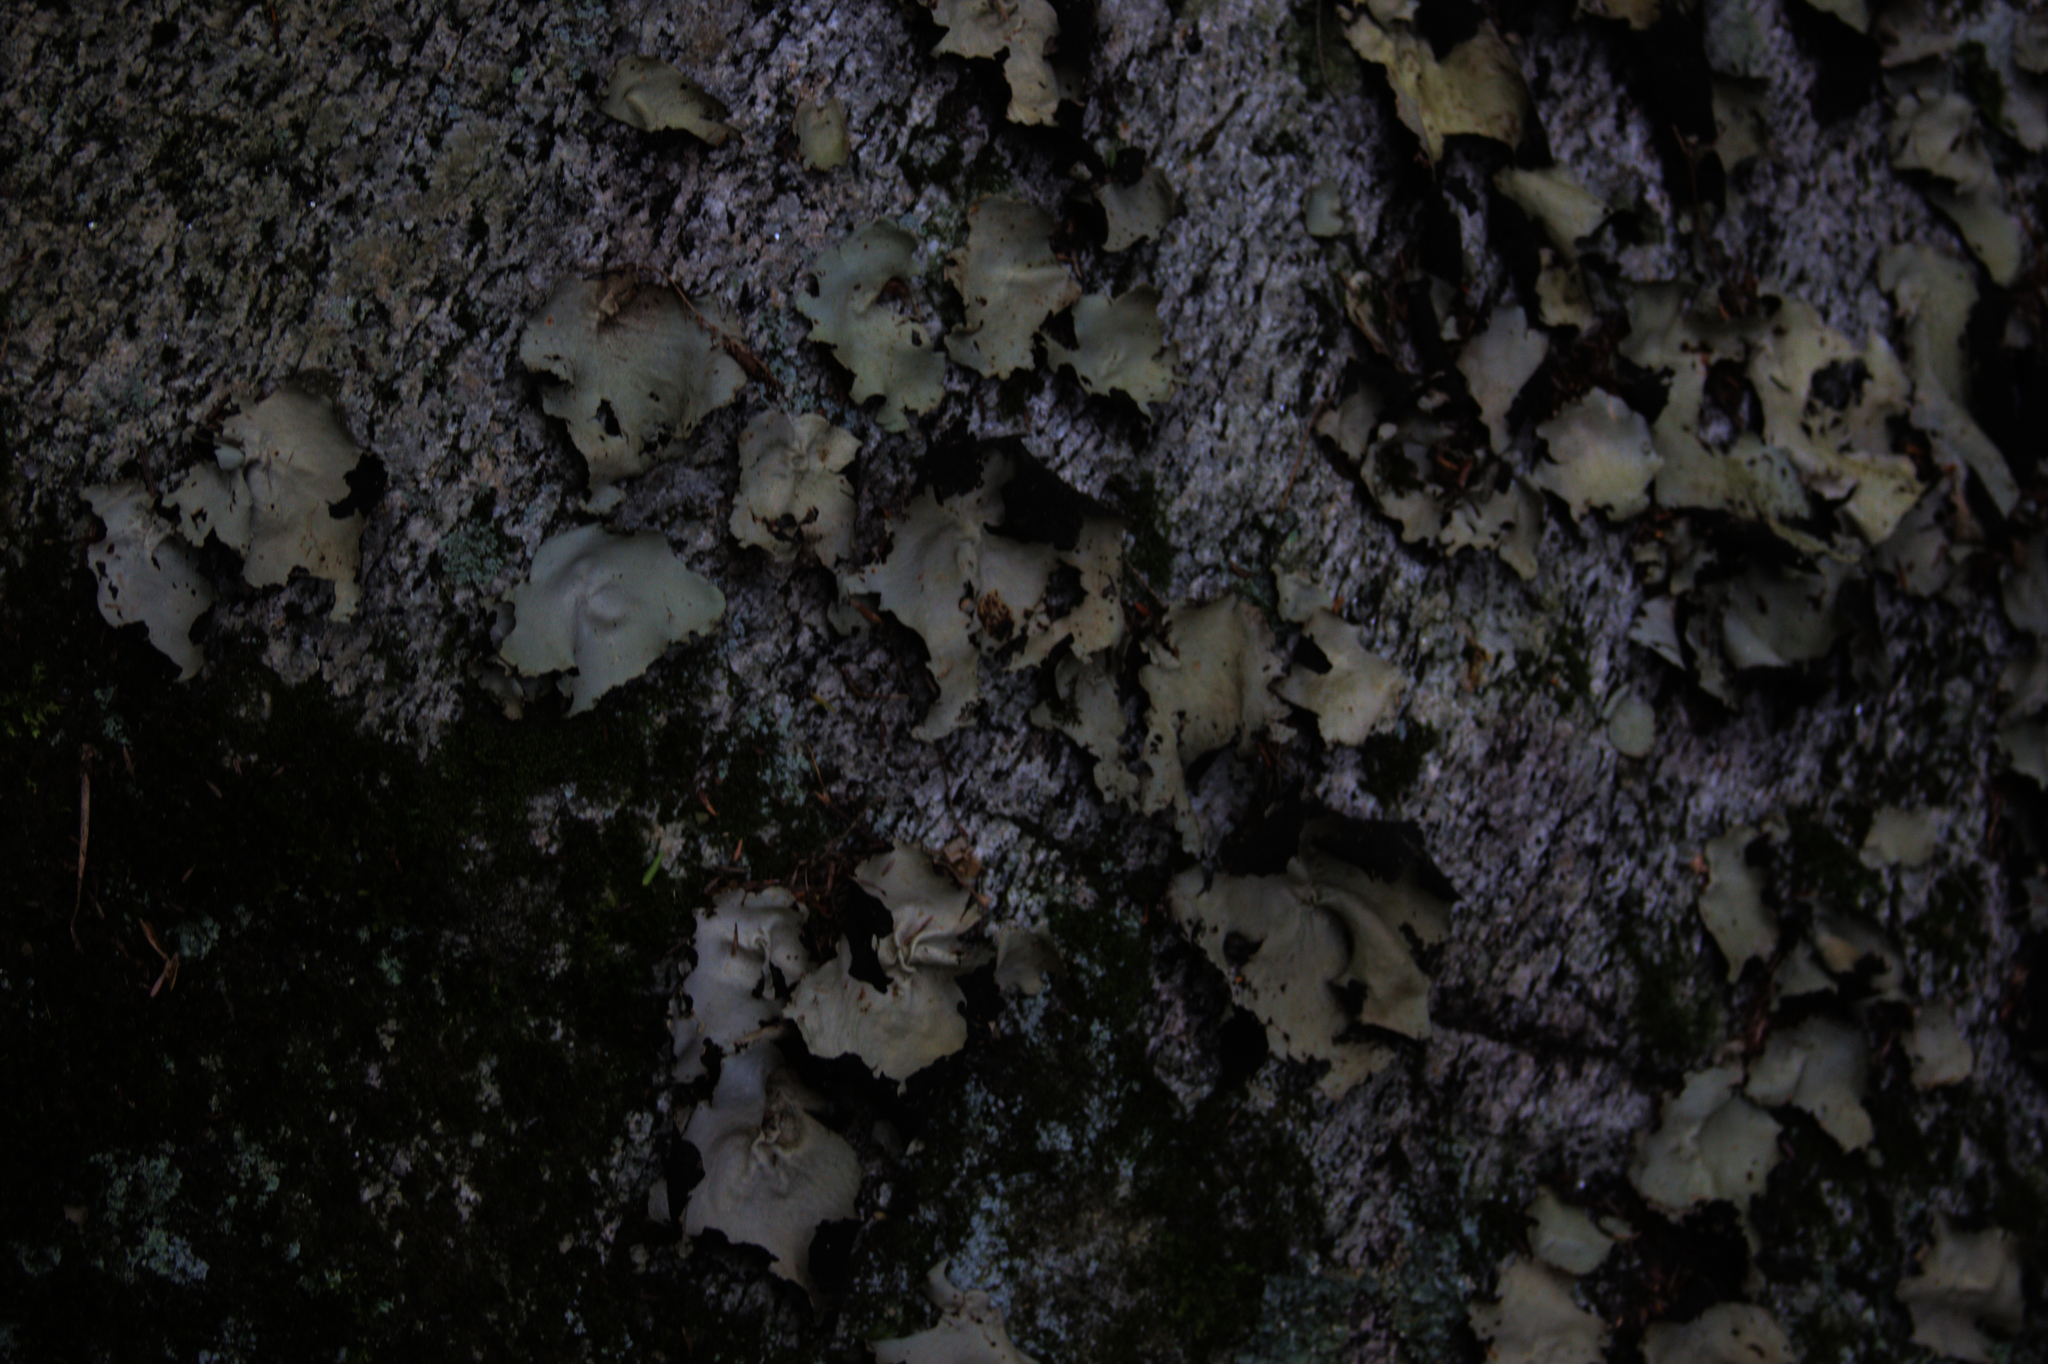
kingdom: Fungi
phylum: Ascomycota
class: Lecanoromycetes
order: Umbilicariales
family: Umbilicariaceae
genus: Umbilicaria
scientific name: Umbilicaria mammulata
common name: Smooth rock tripe
